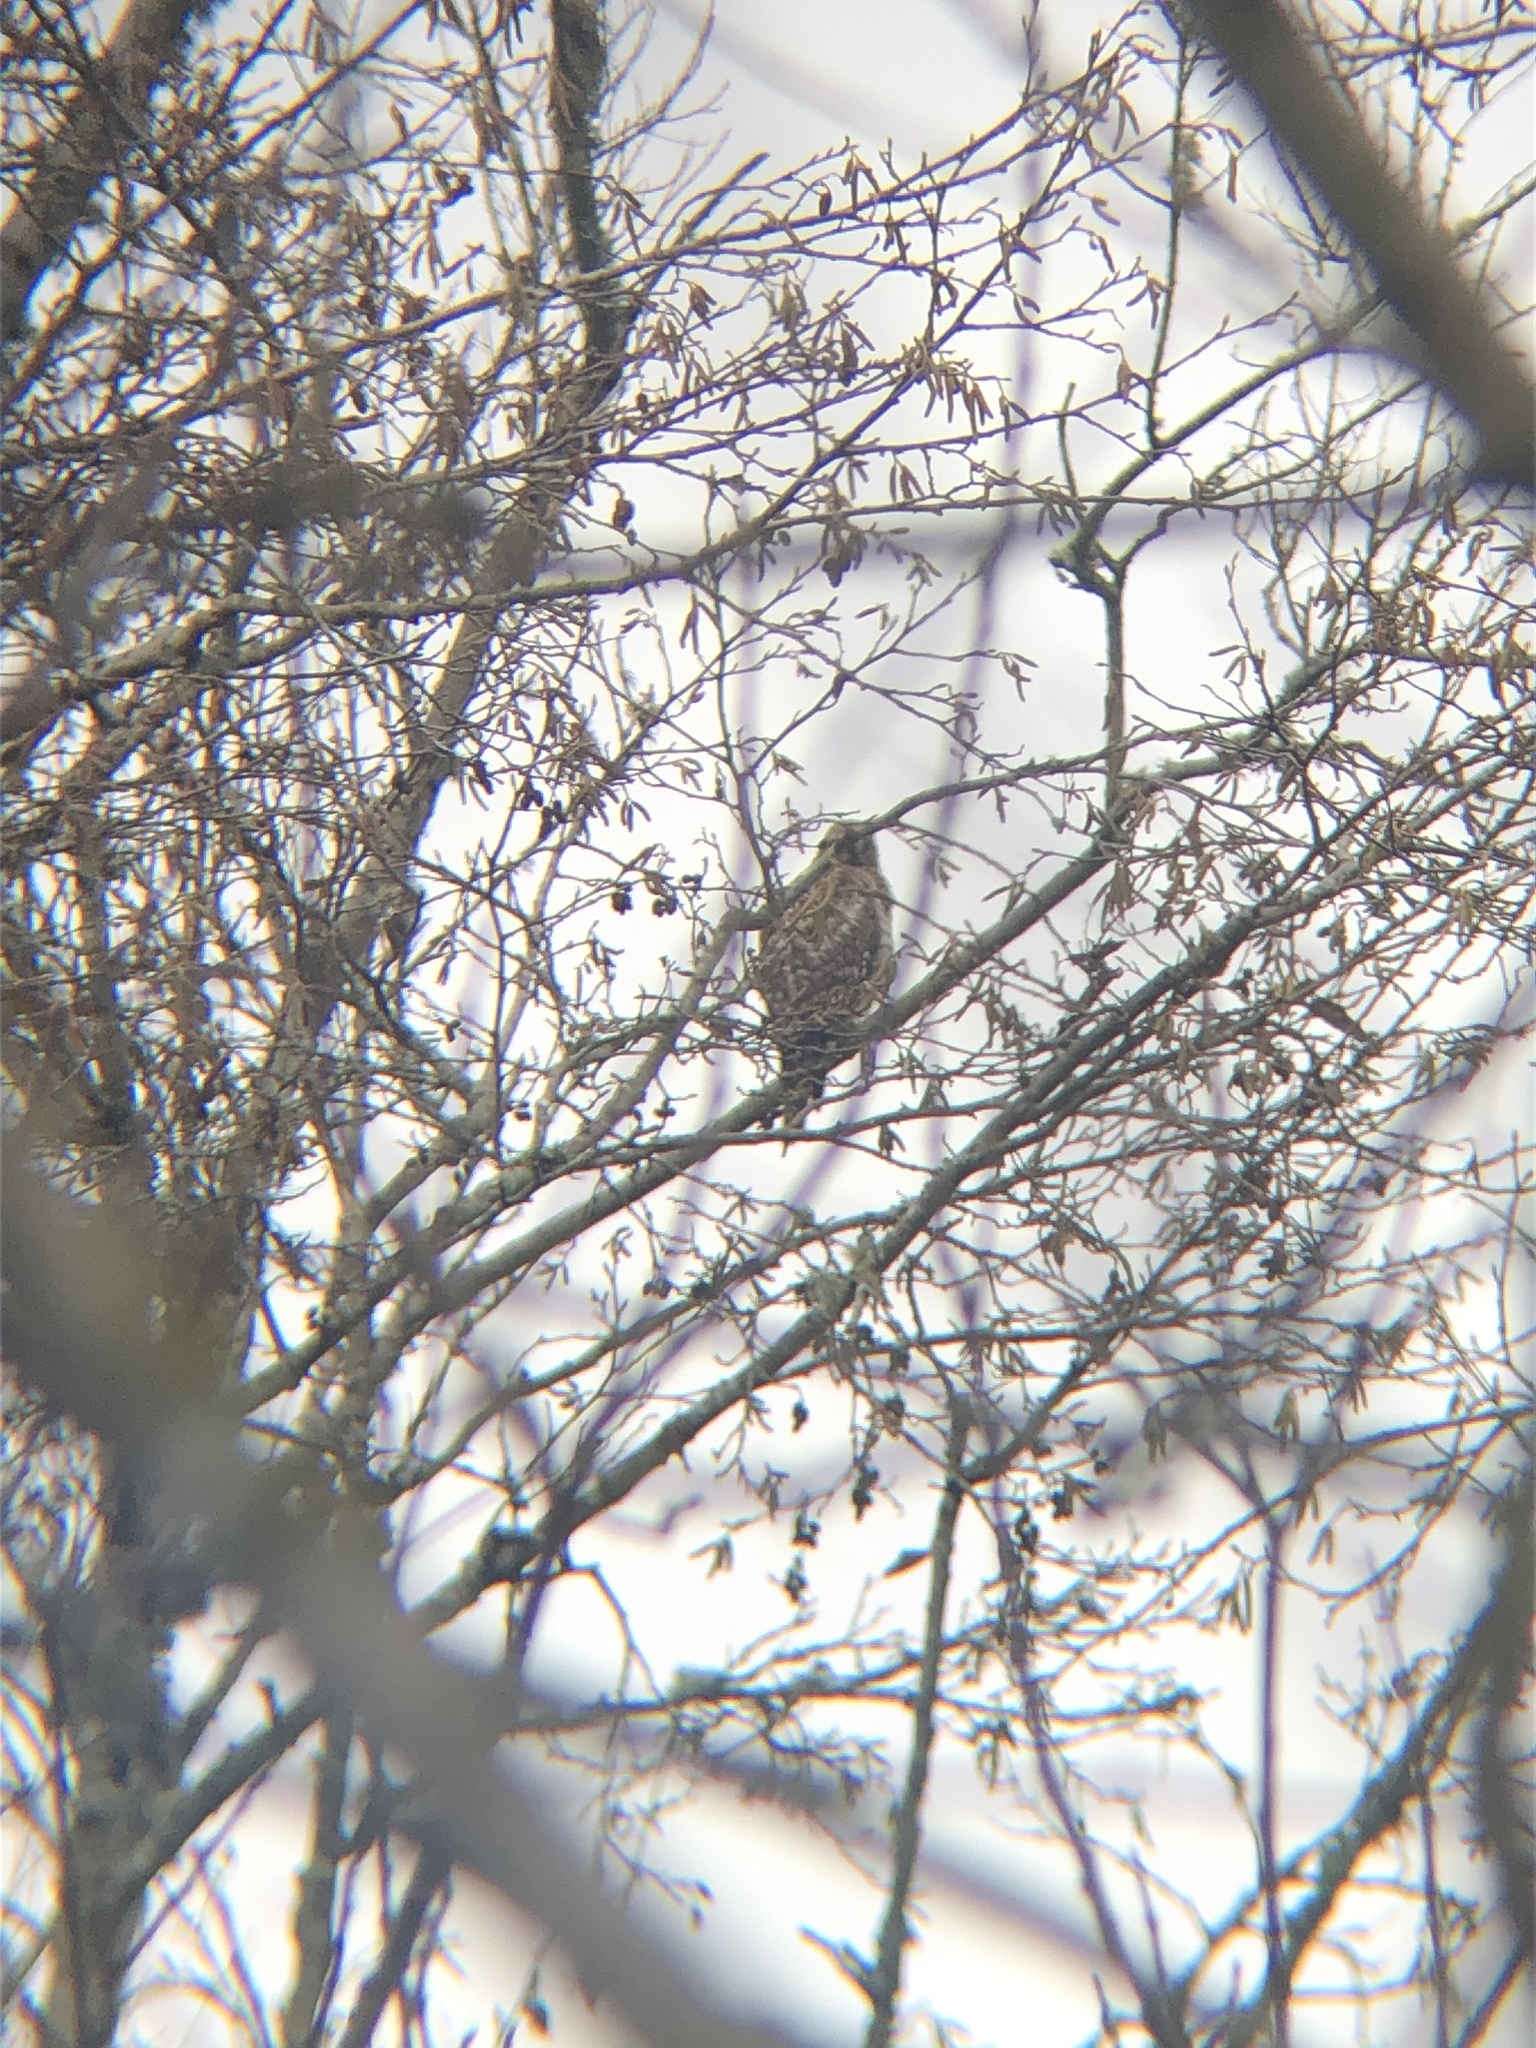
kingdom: Animalia
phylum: Chordata
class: Aves
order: Accipitriformes
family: Accipitridae
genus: Buteo
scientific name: Buteo lineatus
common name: Red-shouldered hawk
